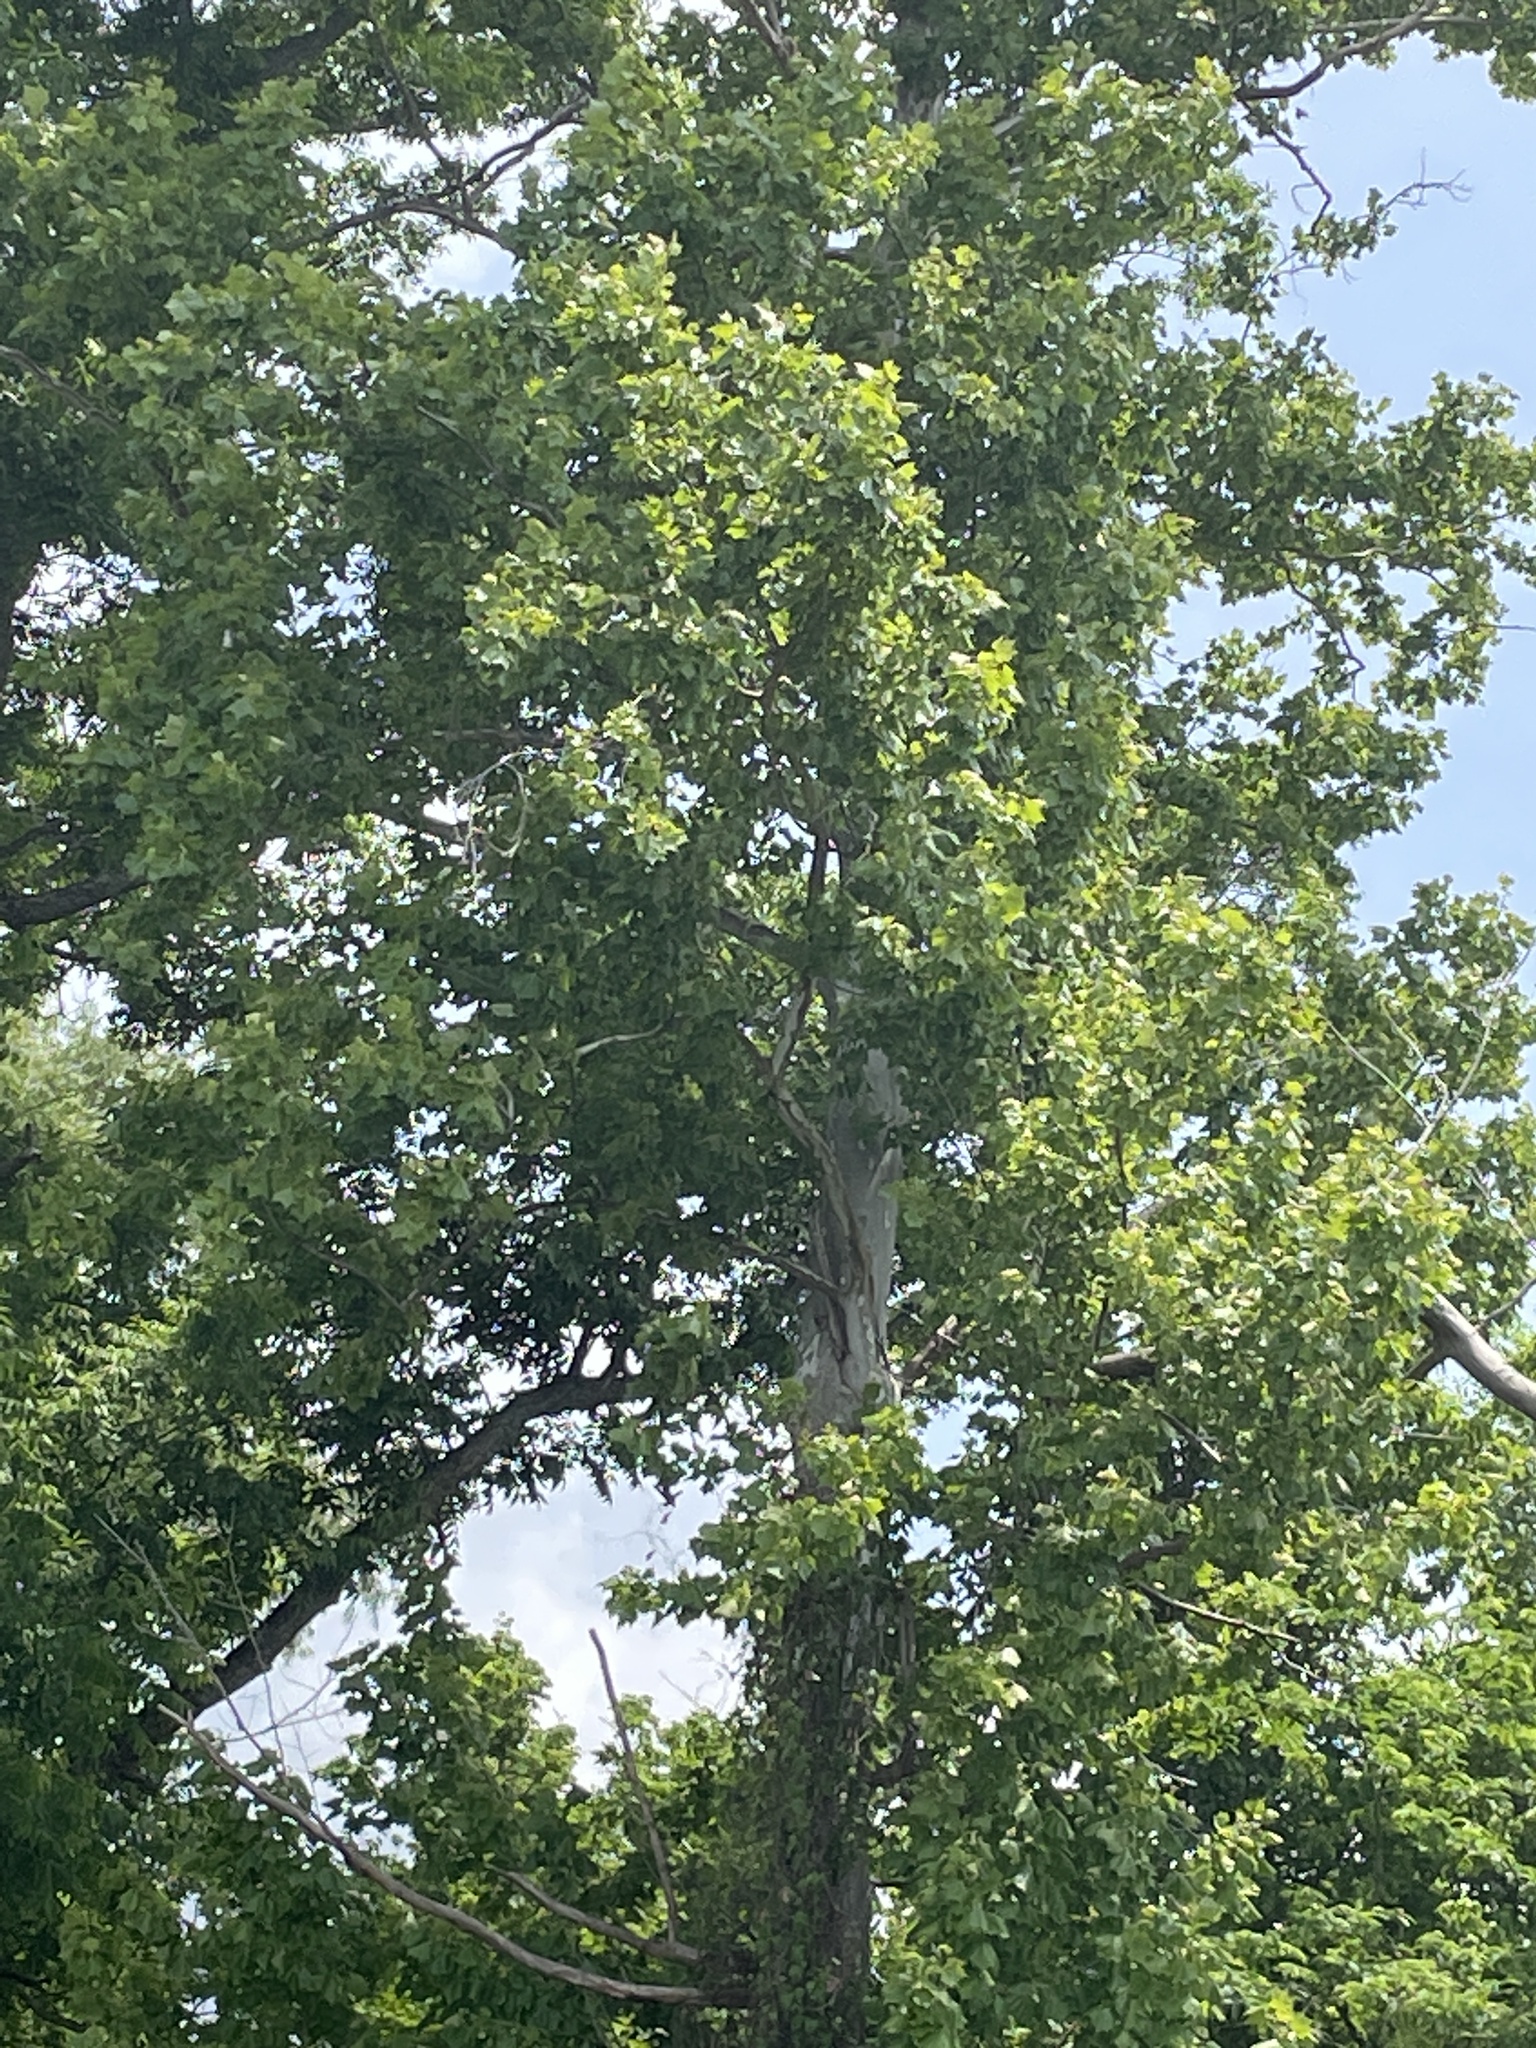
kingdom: Plantae
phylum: Tracheophyta
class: Magnoliopsida
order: Proteales
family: Platanaceae
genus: Platanus
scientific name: Platanus occidentalis
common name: American sycamore
